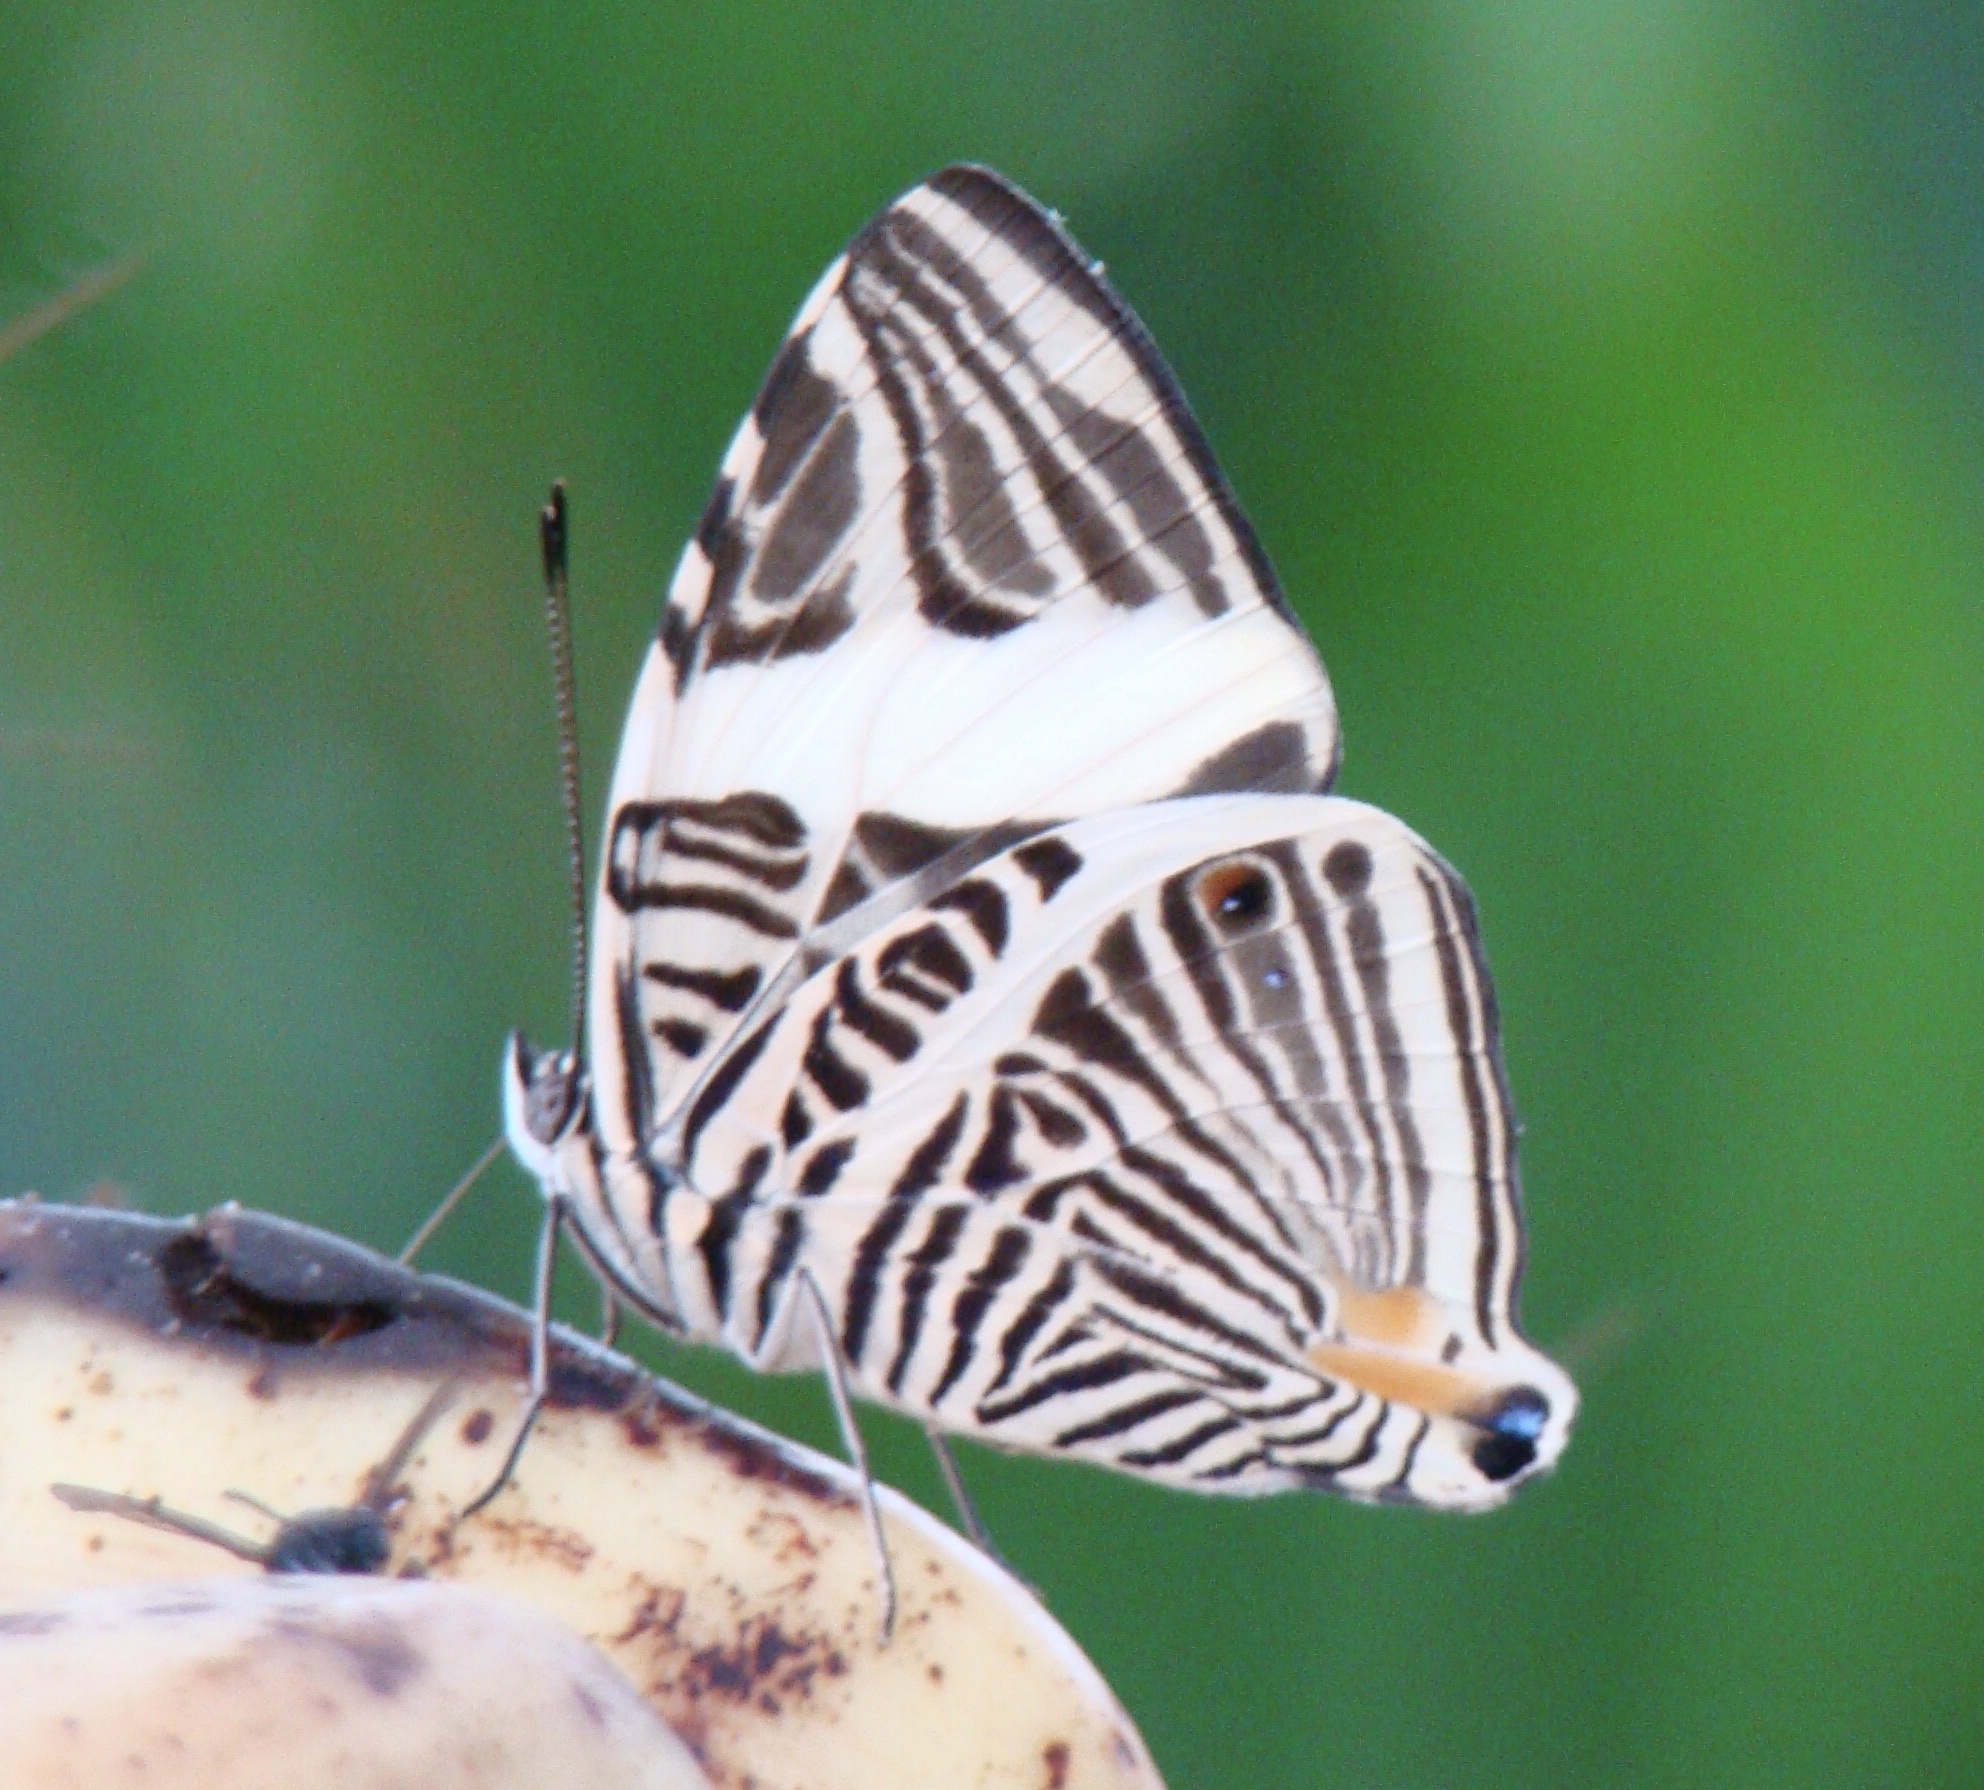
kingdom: Animalia
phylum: Arthropoda
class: Insecta
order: Lepidoptera
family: Nymphalidae
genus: Colobura
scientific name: Colobura dirce
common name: Dirce beauty
